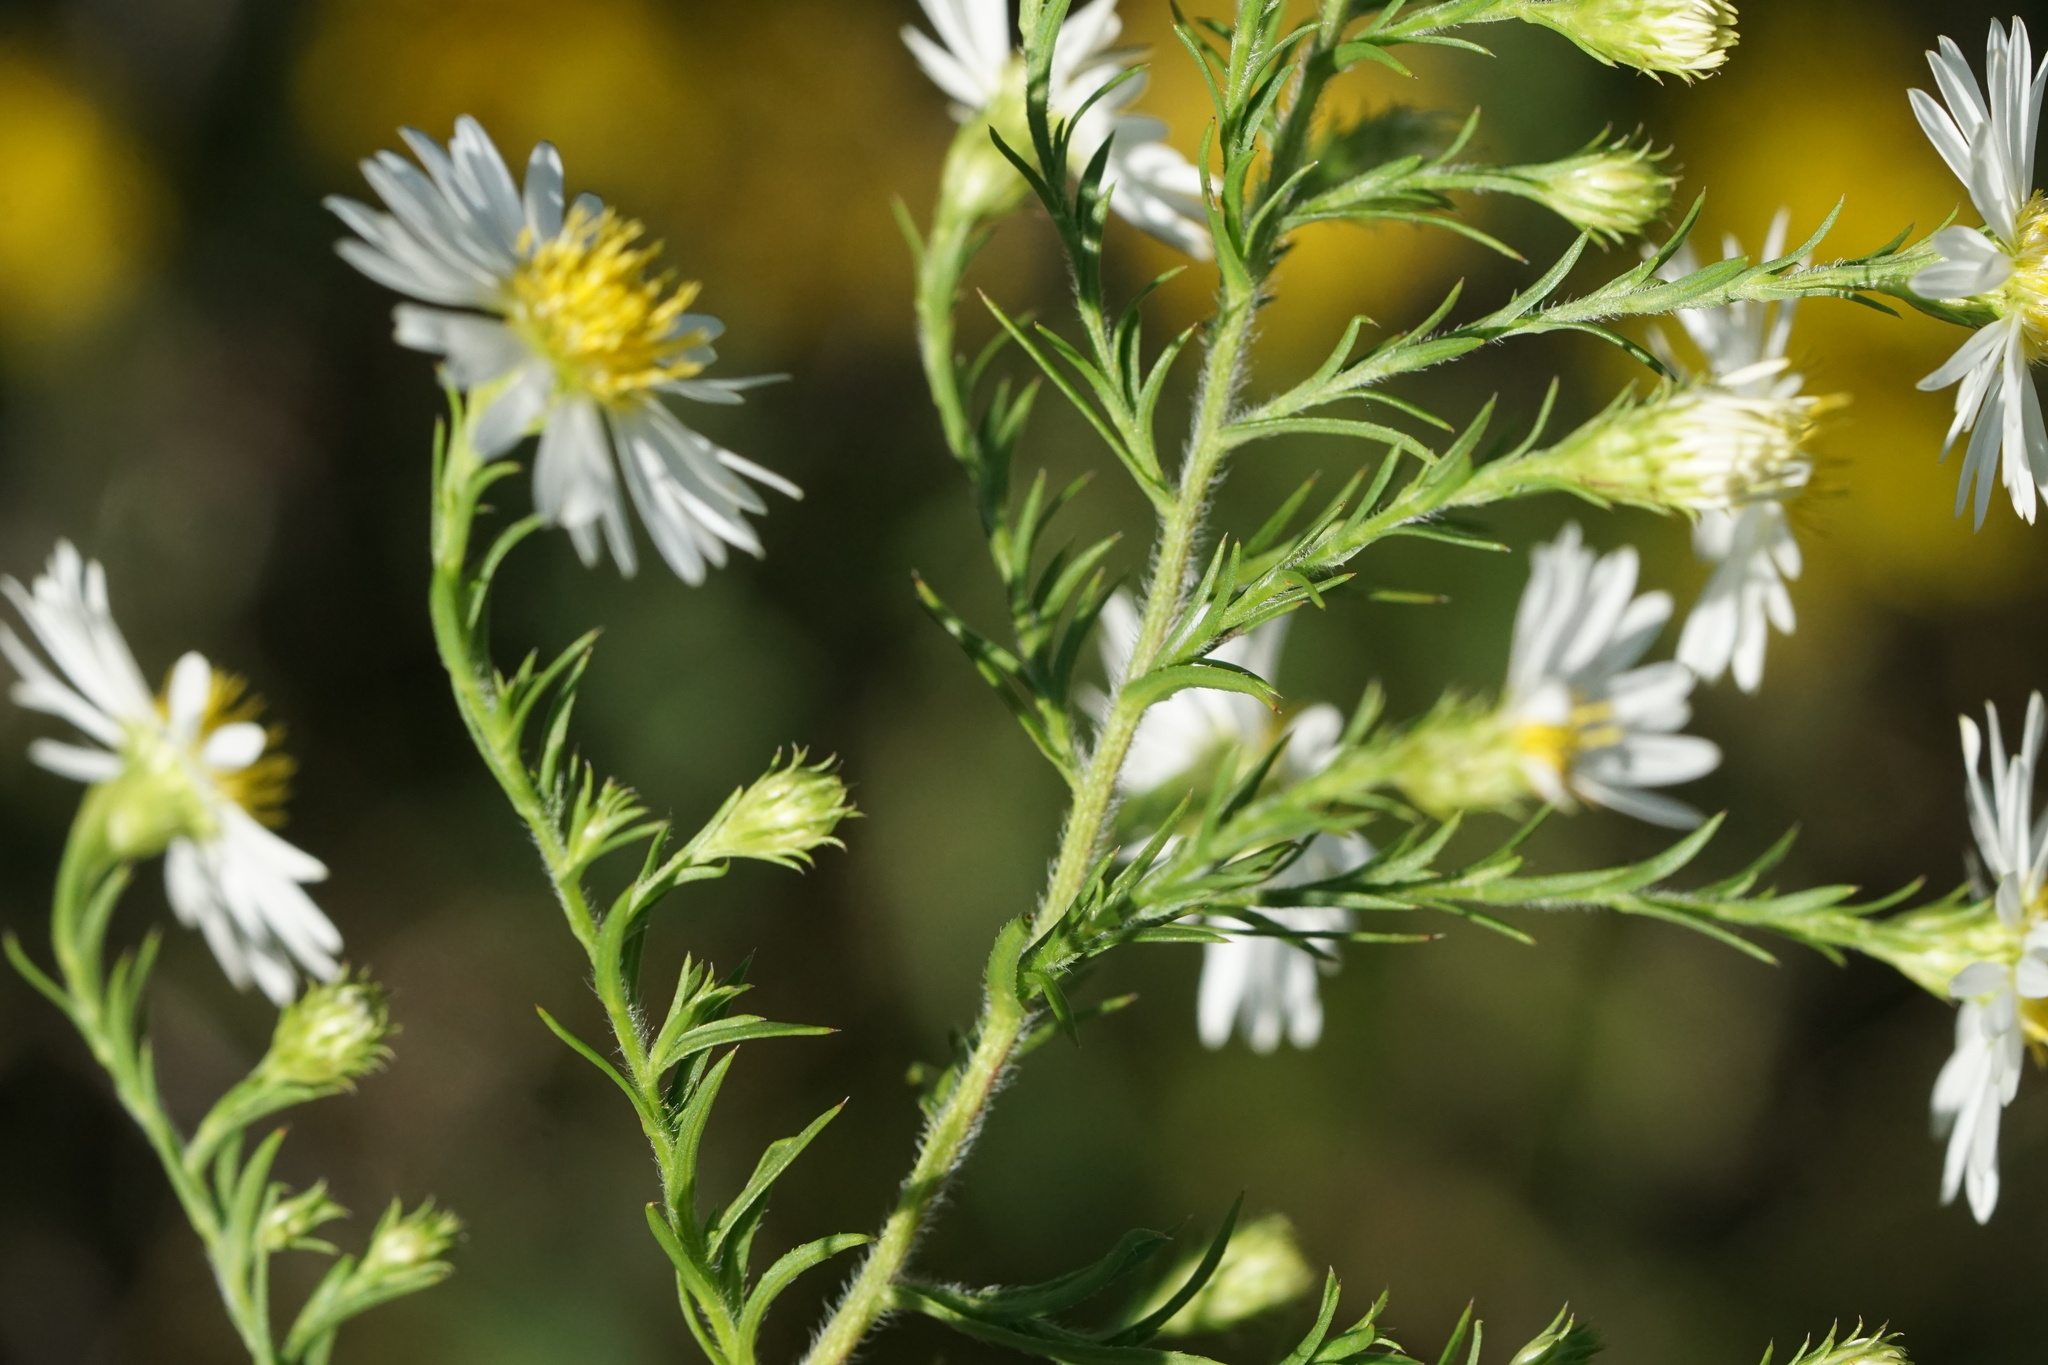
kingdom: Plantae
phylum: Tracheophyta
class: Magnoliopsida
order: Asterales
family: Asteraceae
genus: Symphyotrichum
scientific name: Symphyotrichum pilosum
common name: Awl aster
